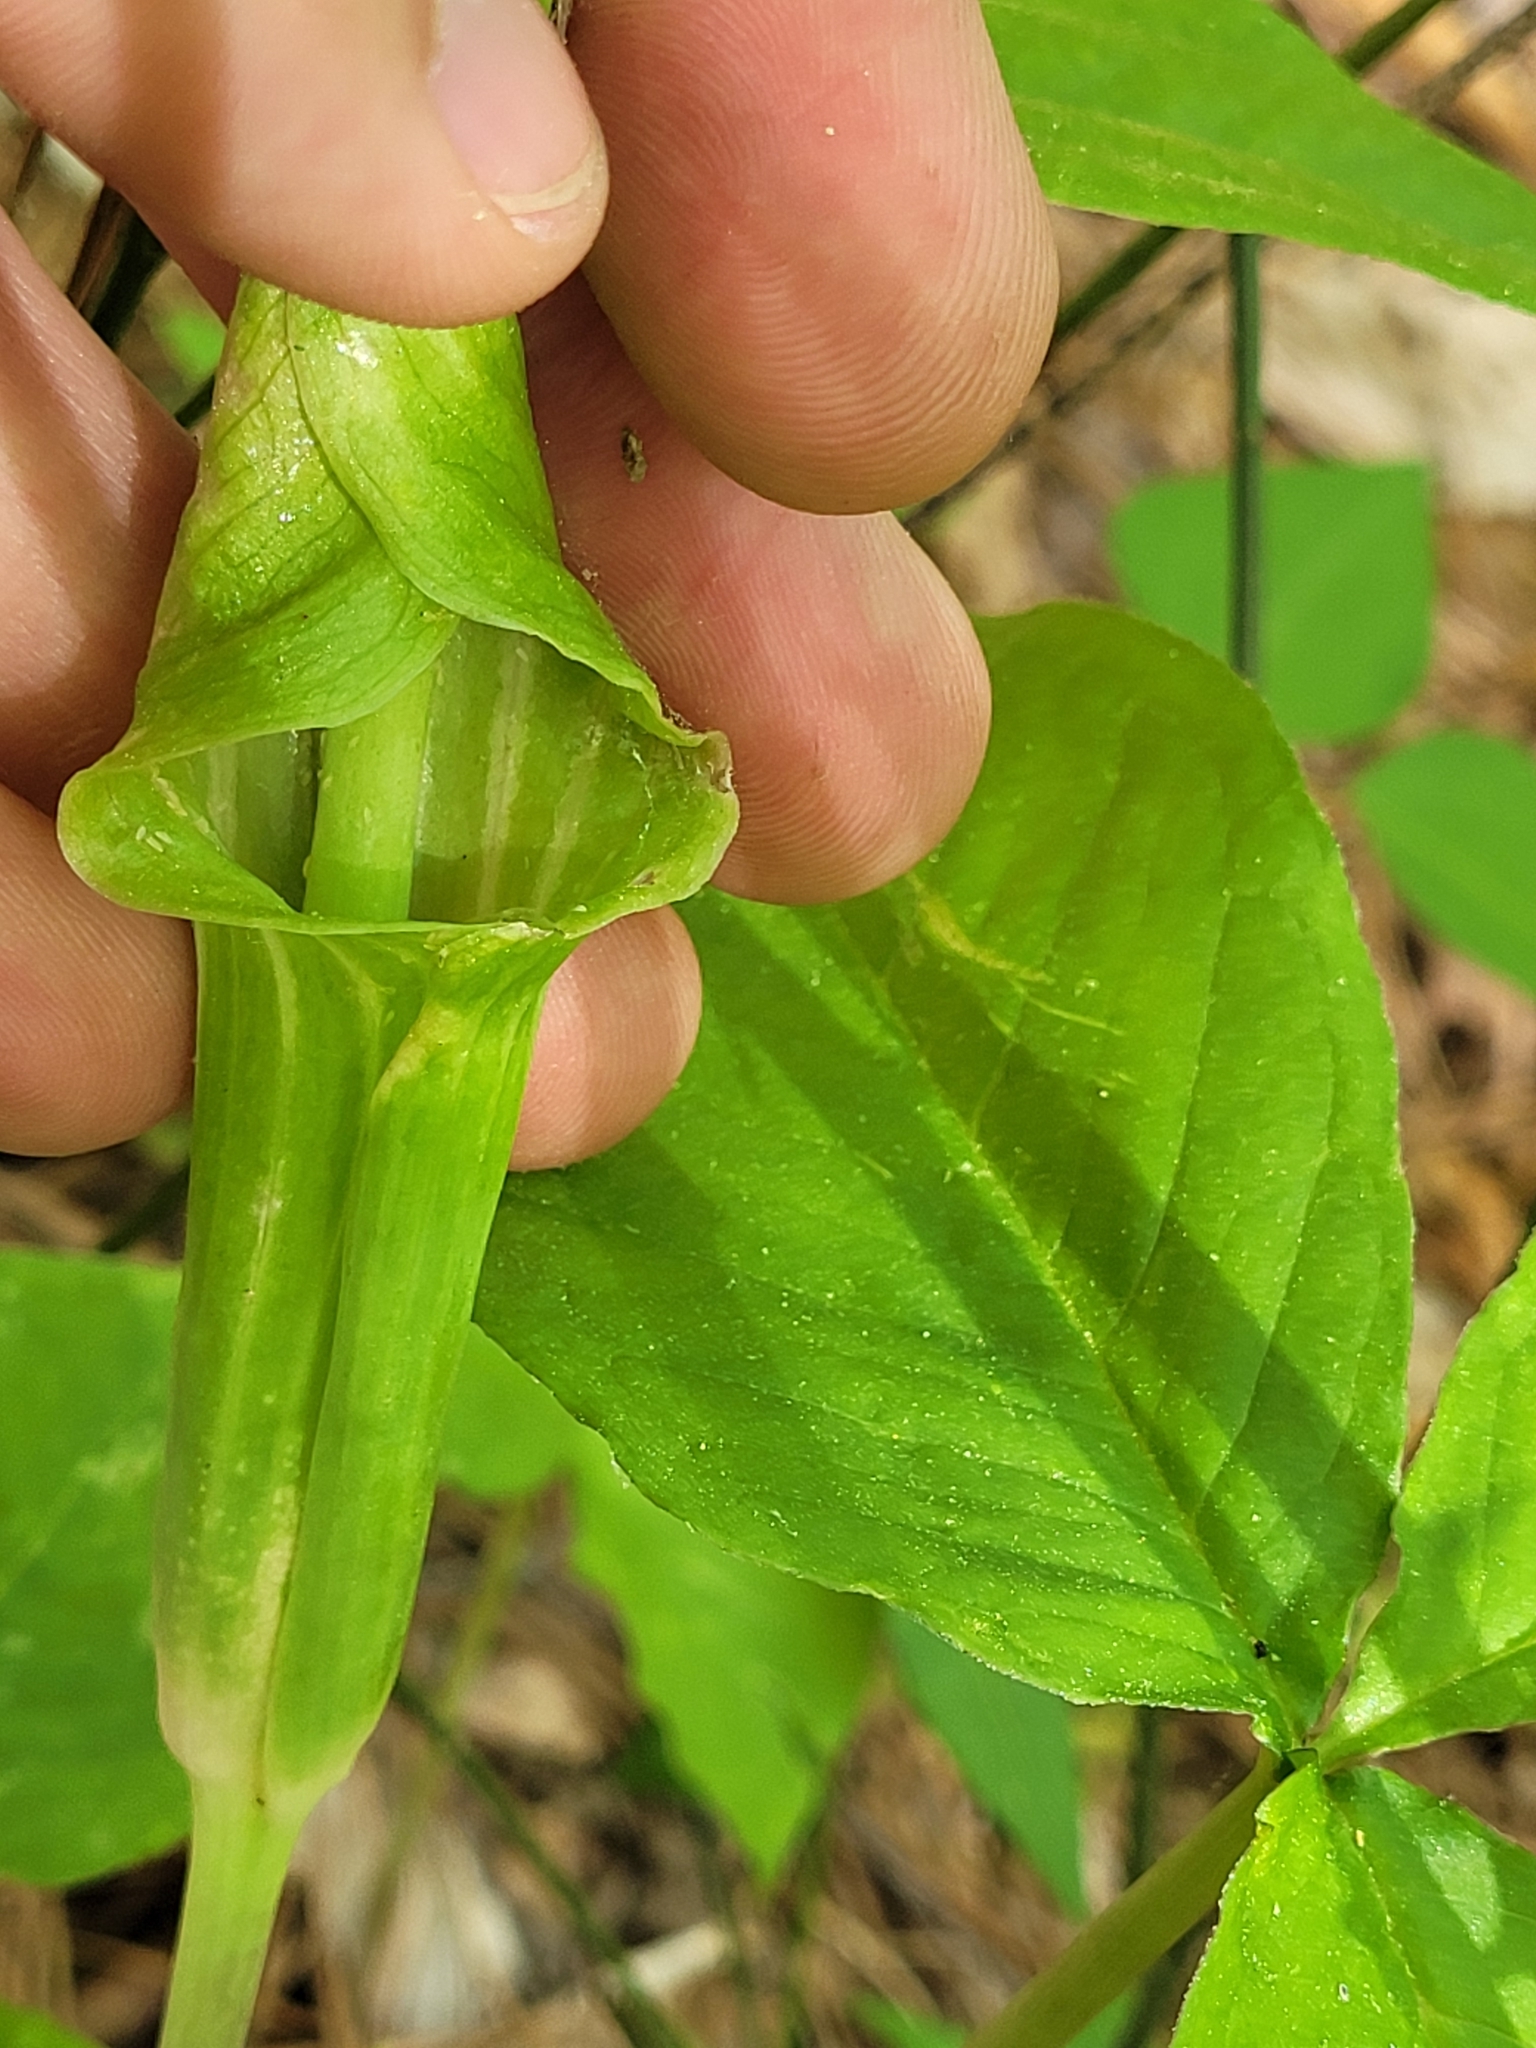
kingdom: Plantae
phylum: Tracheophyta
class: Liliopsida
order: Alismatales
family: Araceae
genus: Arisaema
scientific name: Arisaema triphyllum
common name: Jack-in-the-pulpit
